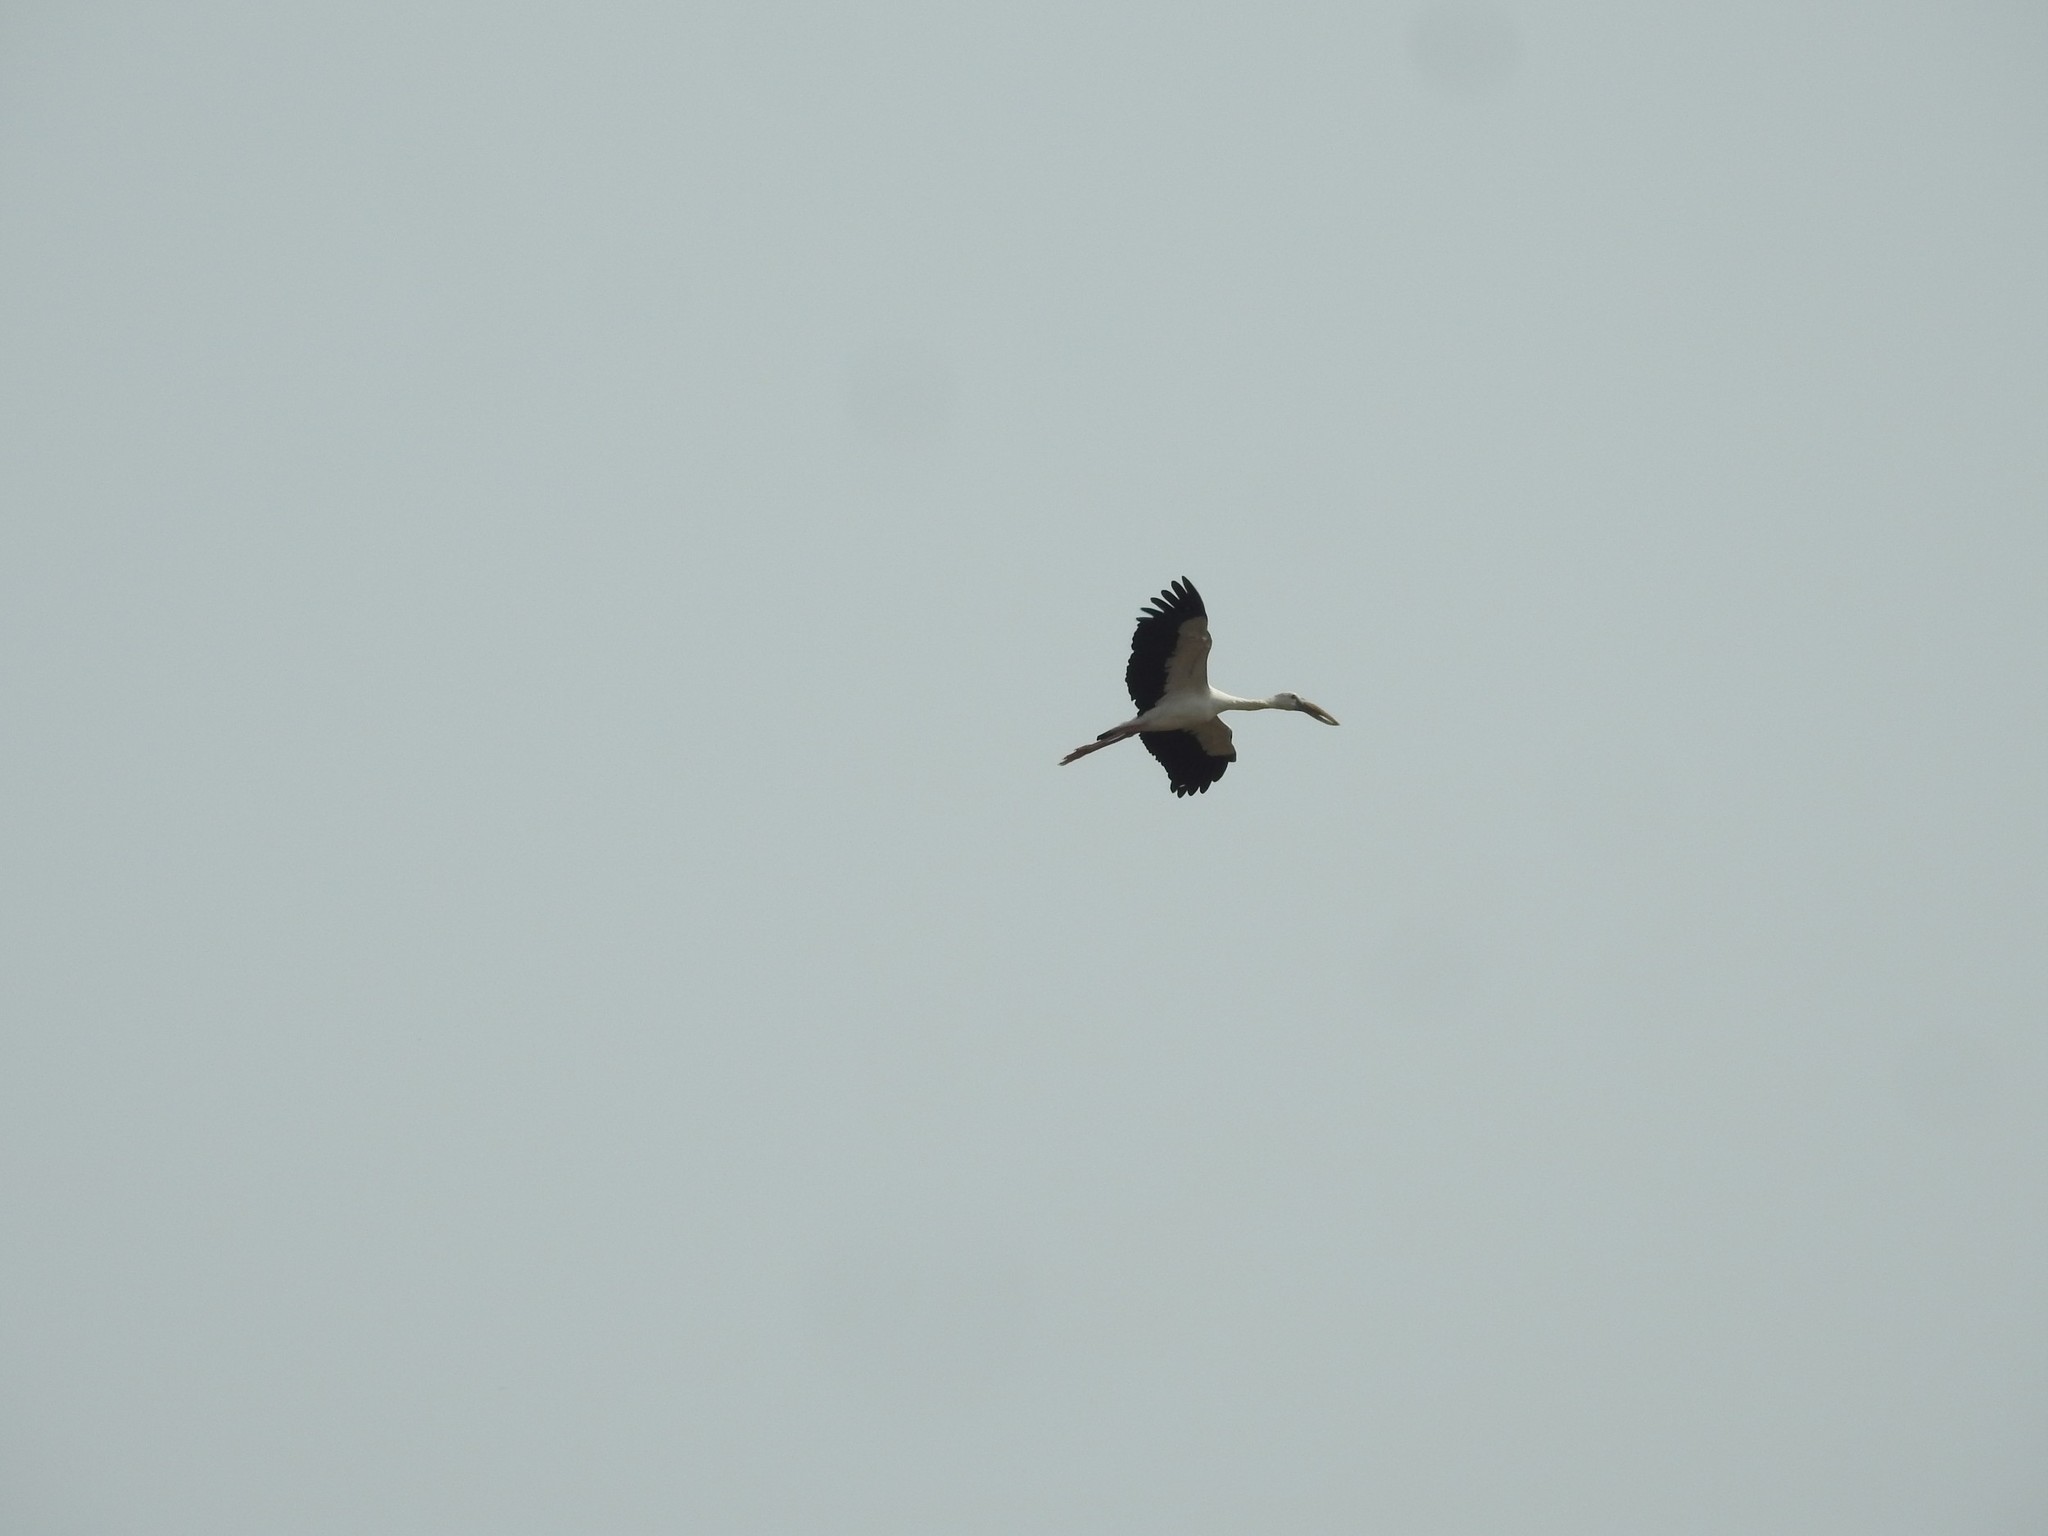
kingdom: Animalia
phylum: Chordata
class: Aves
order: Ciconiiformes
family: Ciconiidae
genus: Anastomus
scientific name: Anastomus oscitans
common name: Asian openbill
